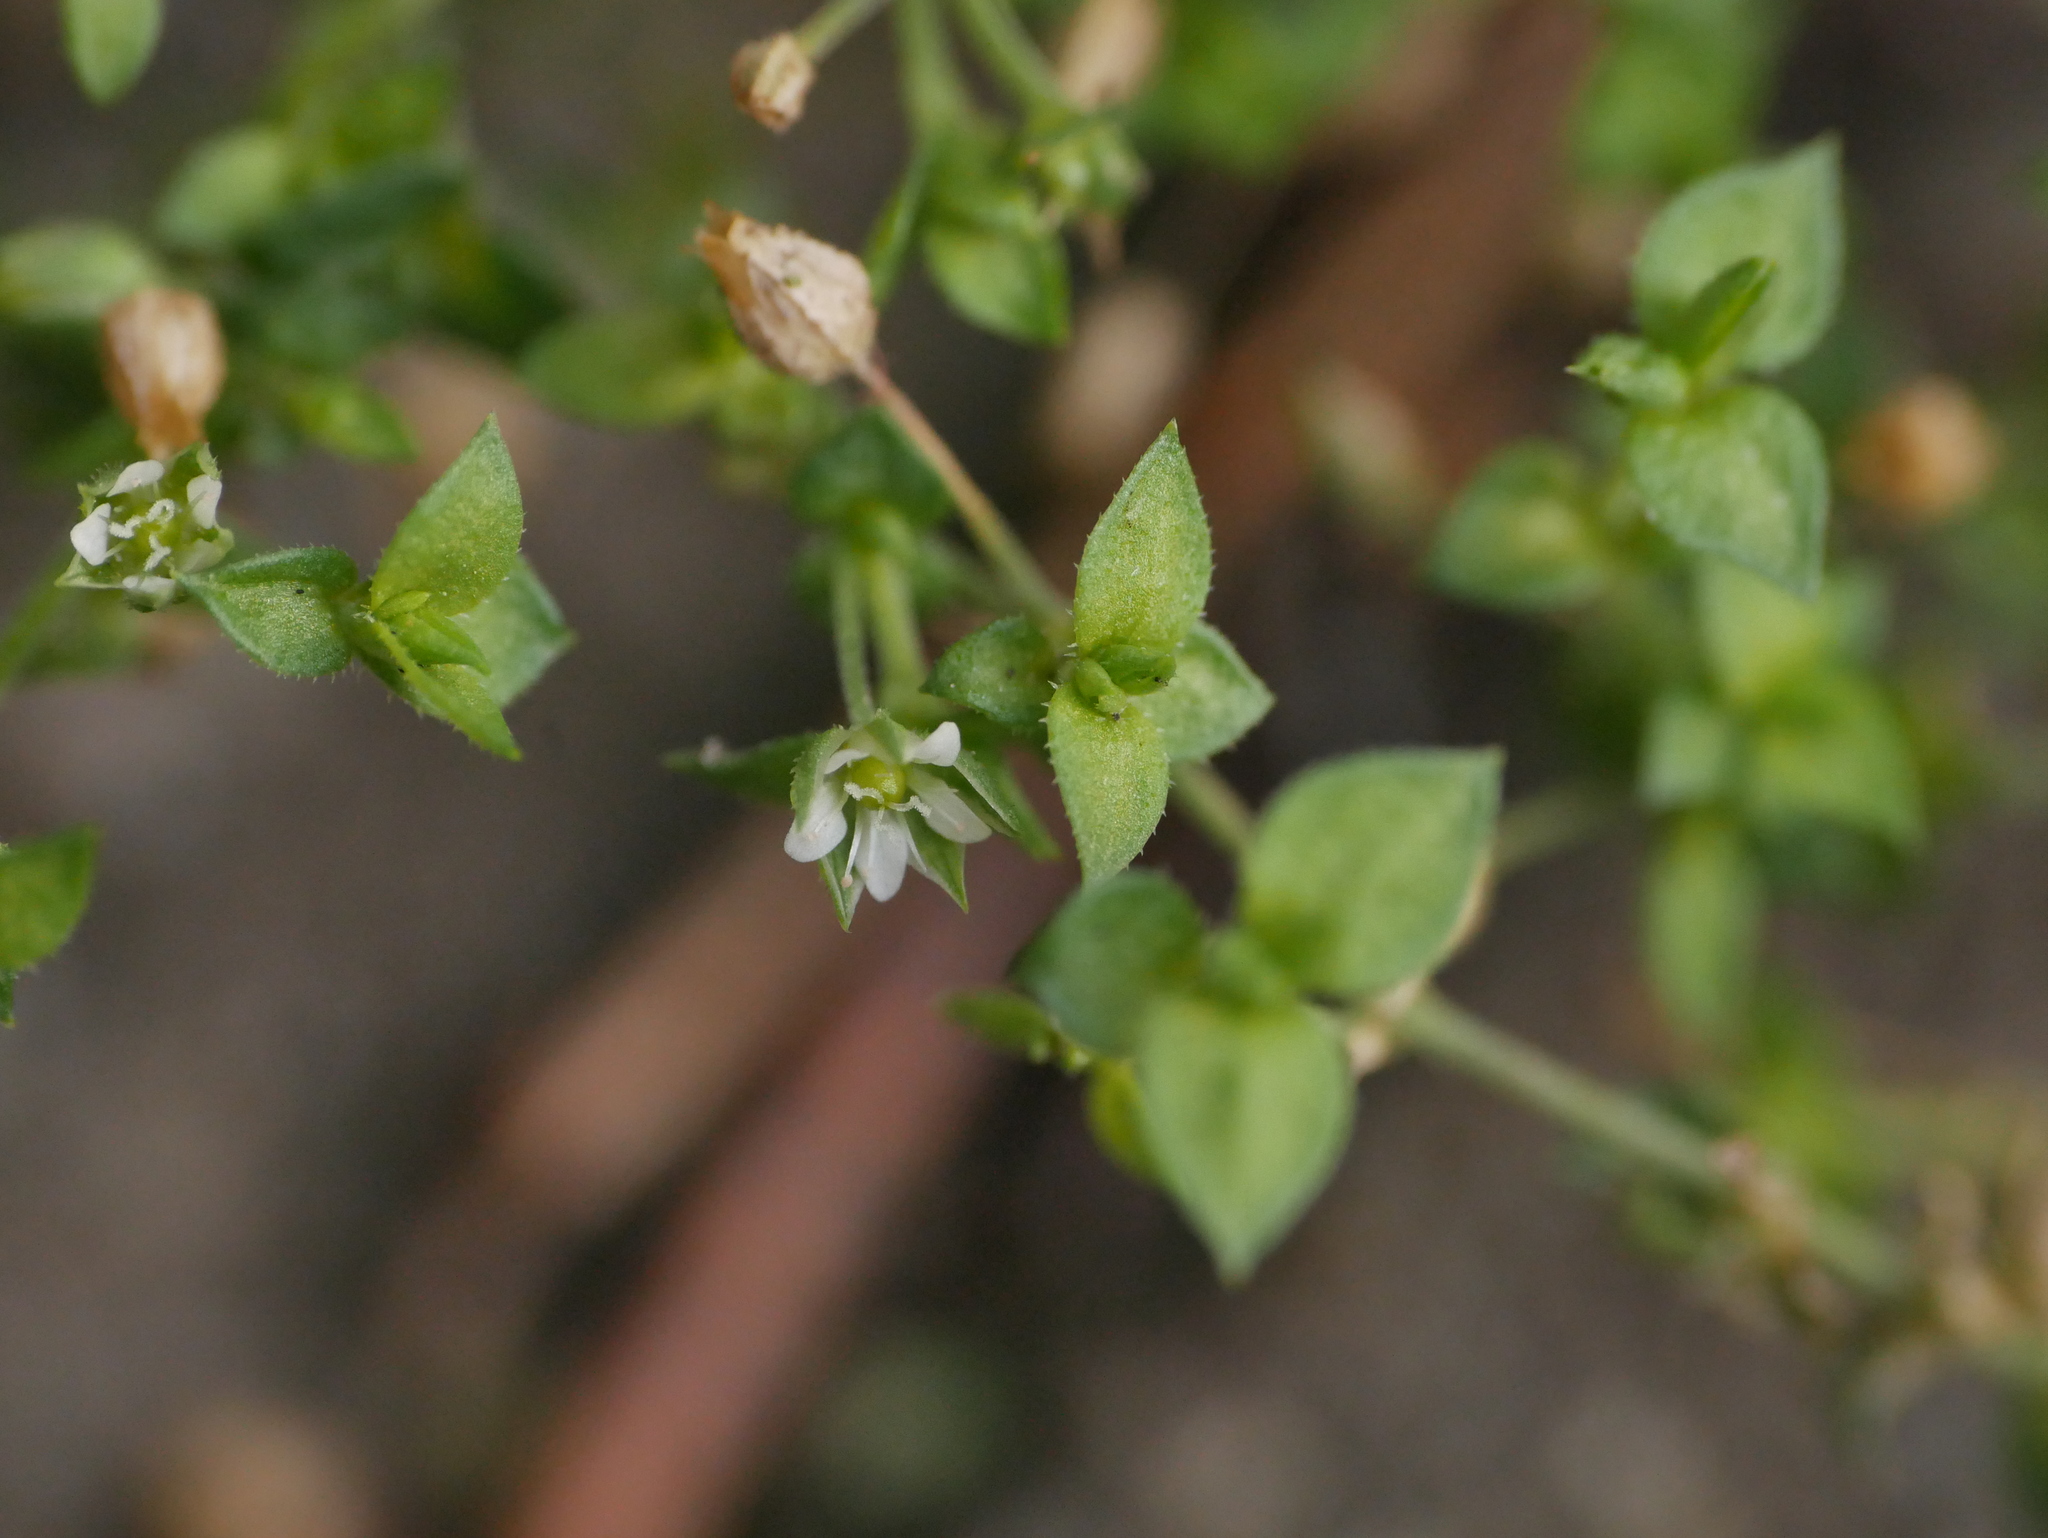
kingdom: Plantae
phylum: Tracheophyta
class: Magnoliopsida
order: Caryophyllales
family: Caryophyllaceae
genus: Arenaria
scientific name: Arenaria serpyllifolia
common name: Thyme-leaved sandwort
